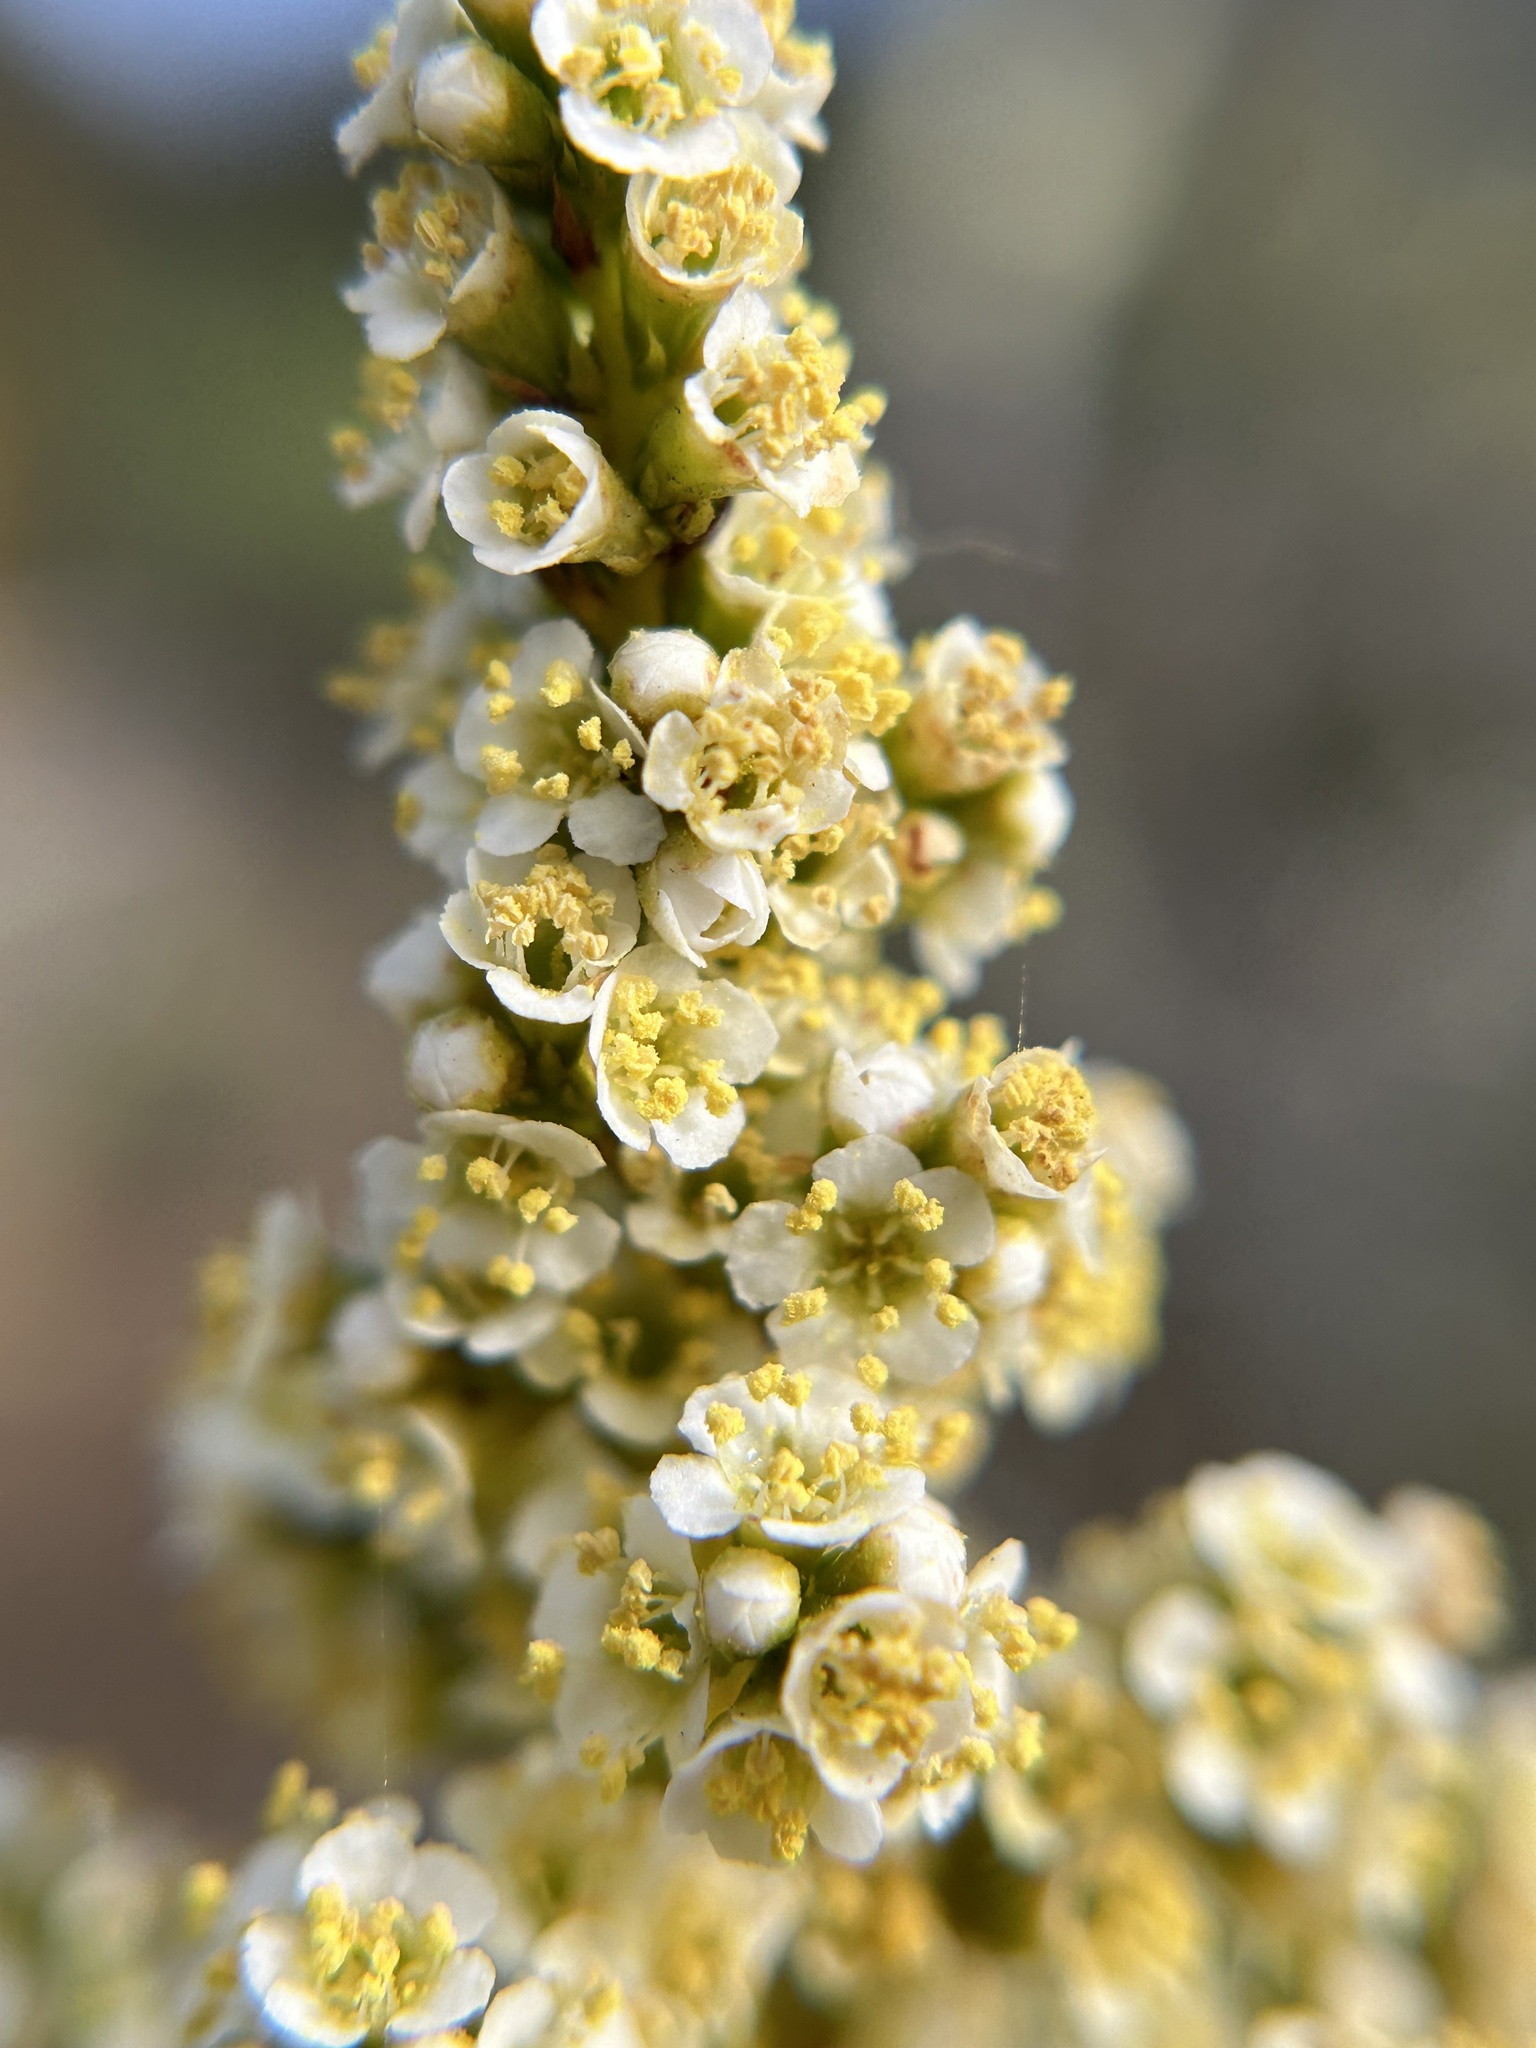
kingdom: Plantae
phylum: Tracheophyta
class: Magnoliopsida
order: Rosales
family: Rosaceae
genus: Adenostoma
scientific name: Adenostoma fasciculatum
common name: Chamise
